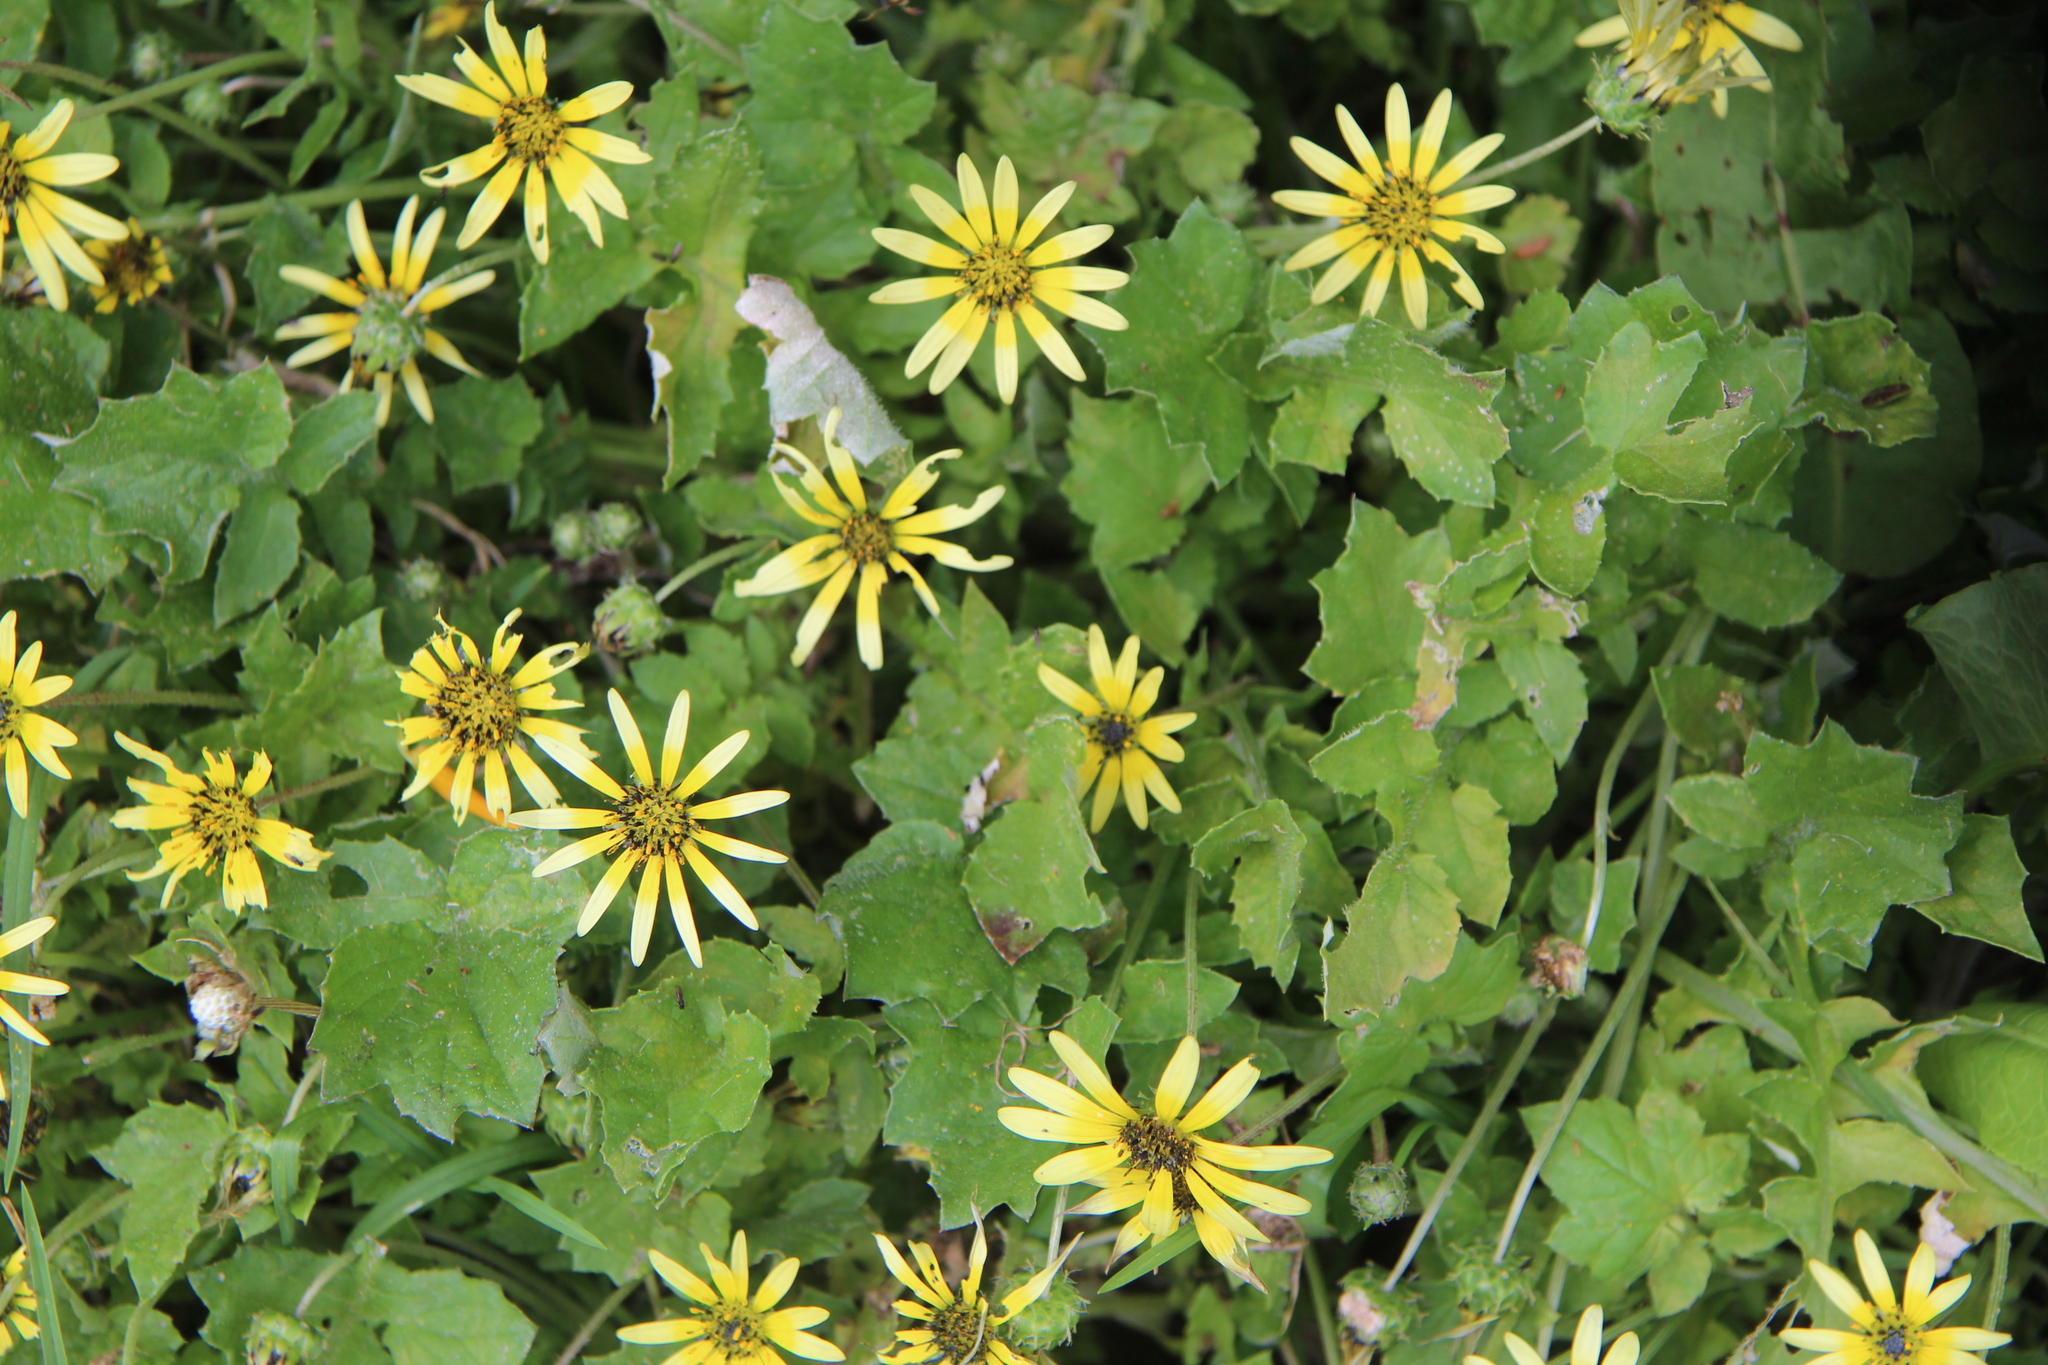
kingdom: Plantae
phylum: Tracheophyta
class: Magnoliopsida
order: Asterales
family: Asteraceae
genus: Arctotheca
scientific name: Arctotheca calendula
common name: Capeweed
